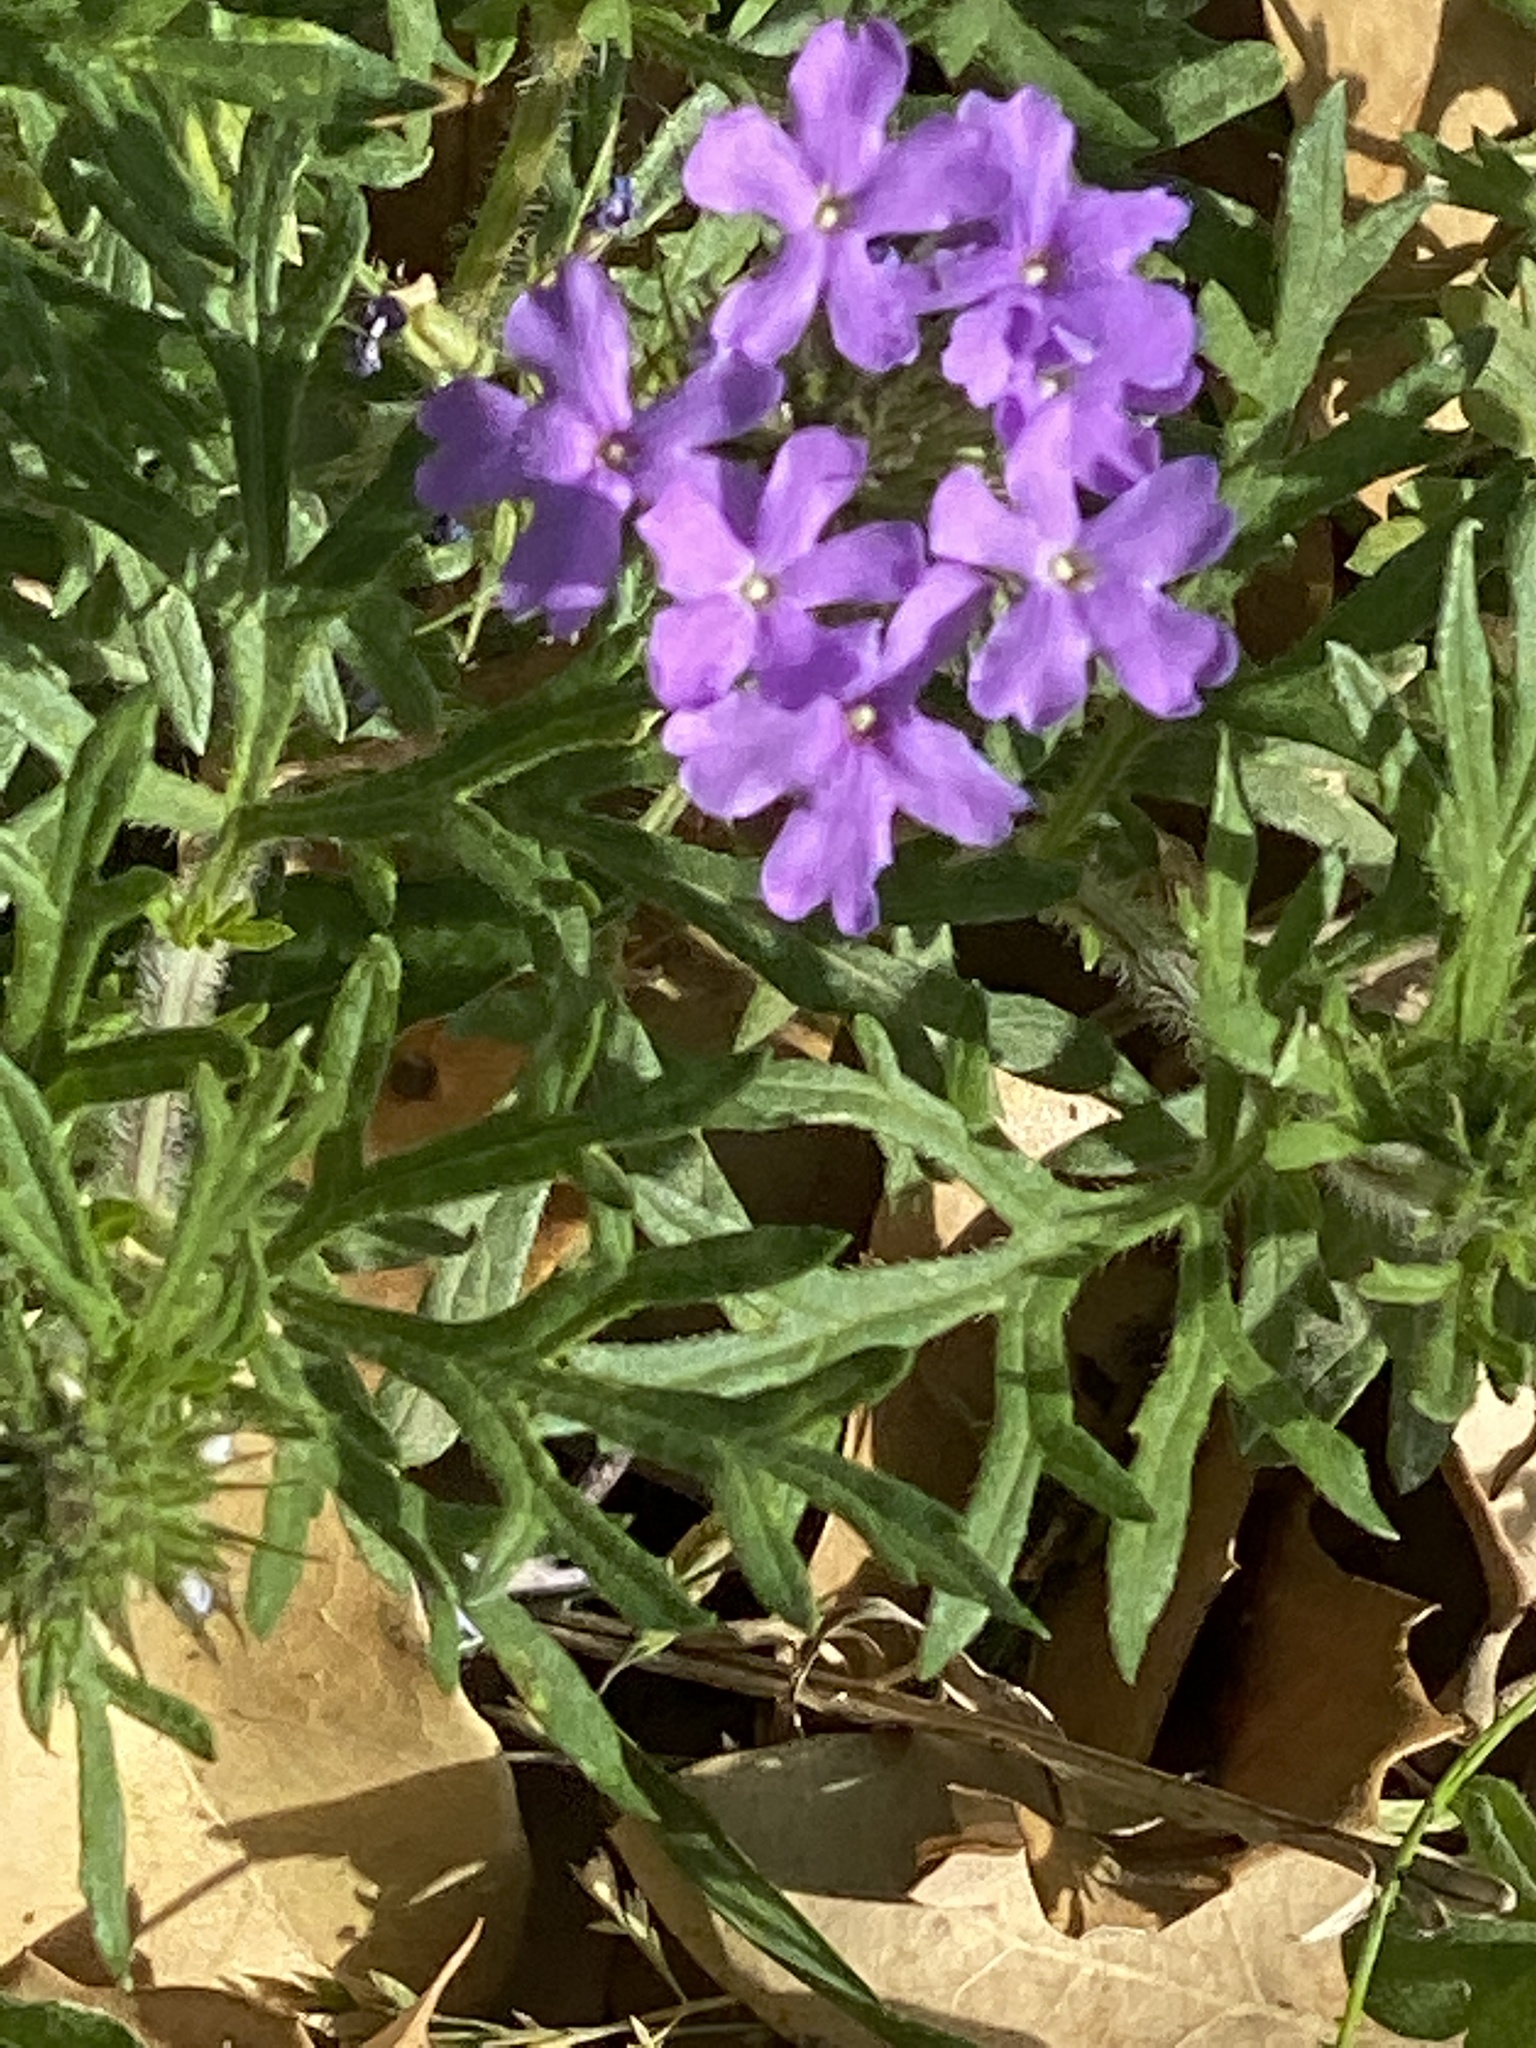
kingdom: Plantae
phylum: Tracheophyta
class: Magnoliopsida
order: Lamiales
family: Verbenaceae
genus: Verbena
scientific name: Verbena bipinnatifida
